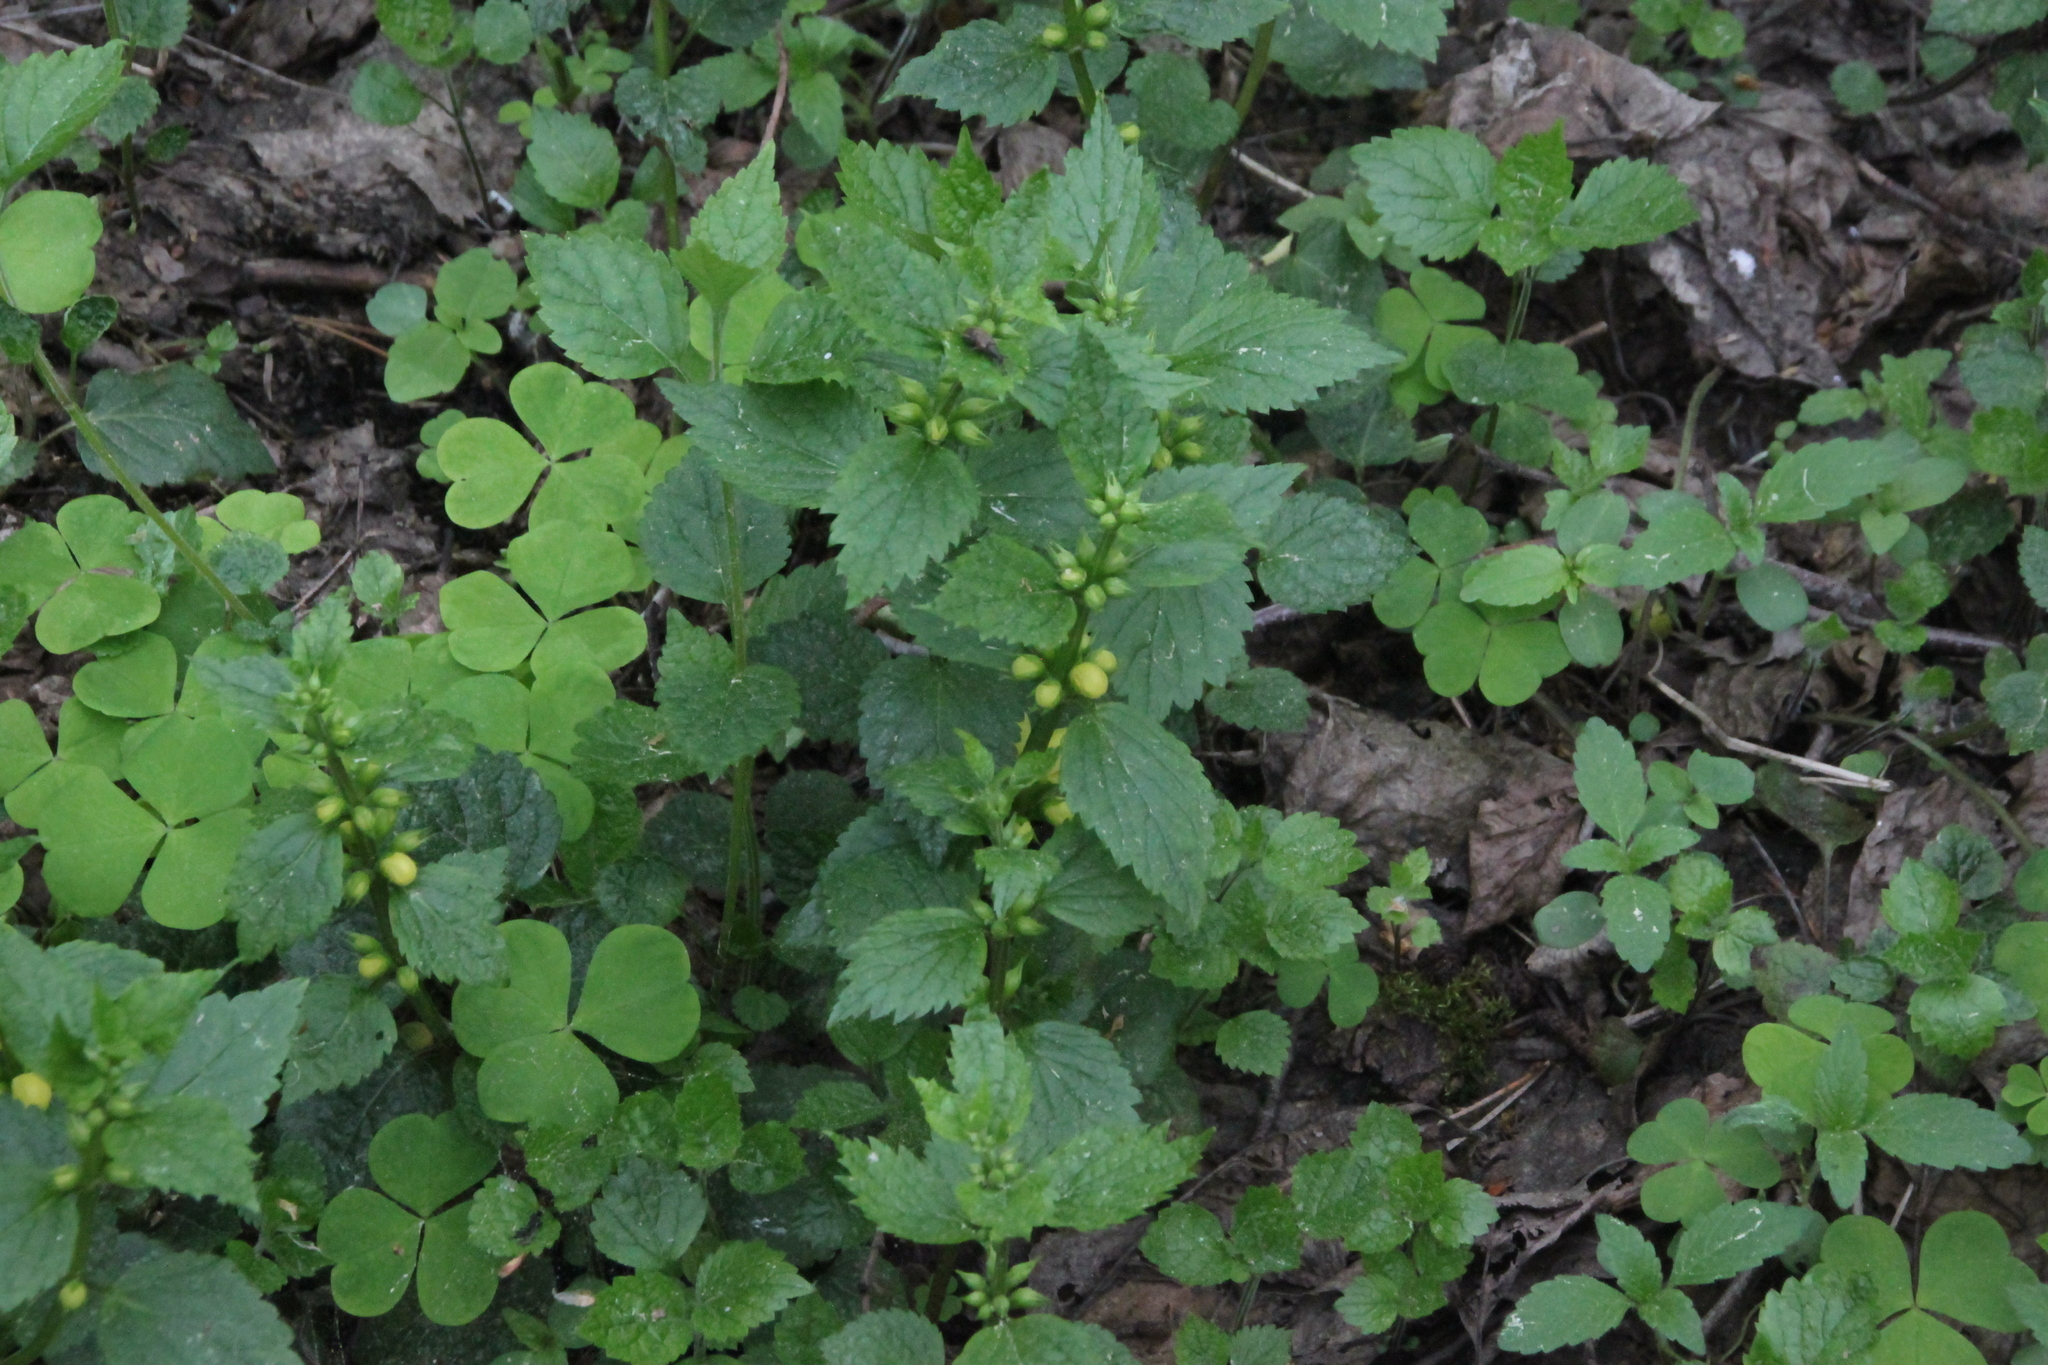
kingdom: Plantae
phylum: Tracheophyta
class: Magnoliopsida
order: Lamiales
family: Lamiaceae
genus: Lamium
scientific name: Lamium galeobdolon
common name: Yellow archangel
